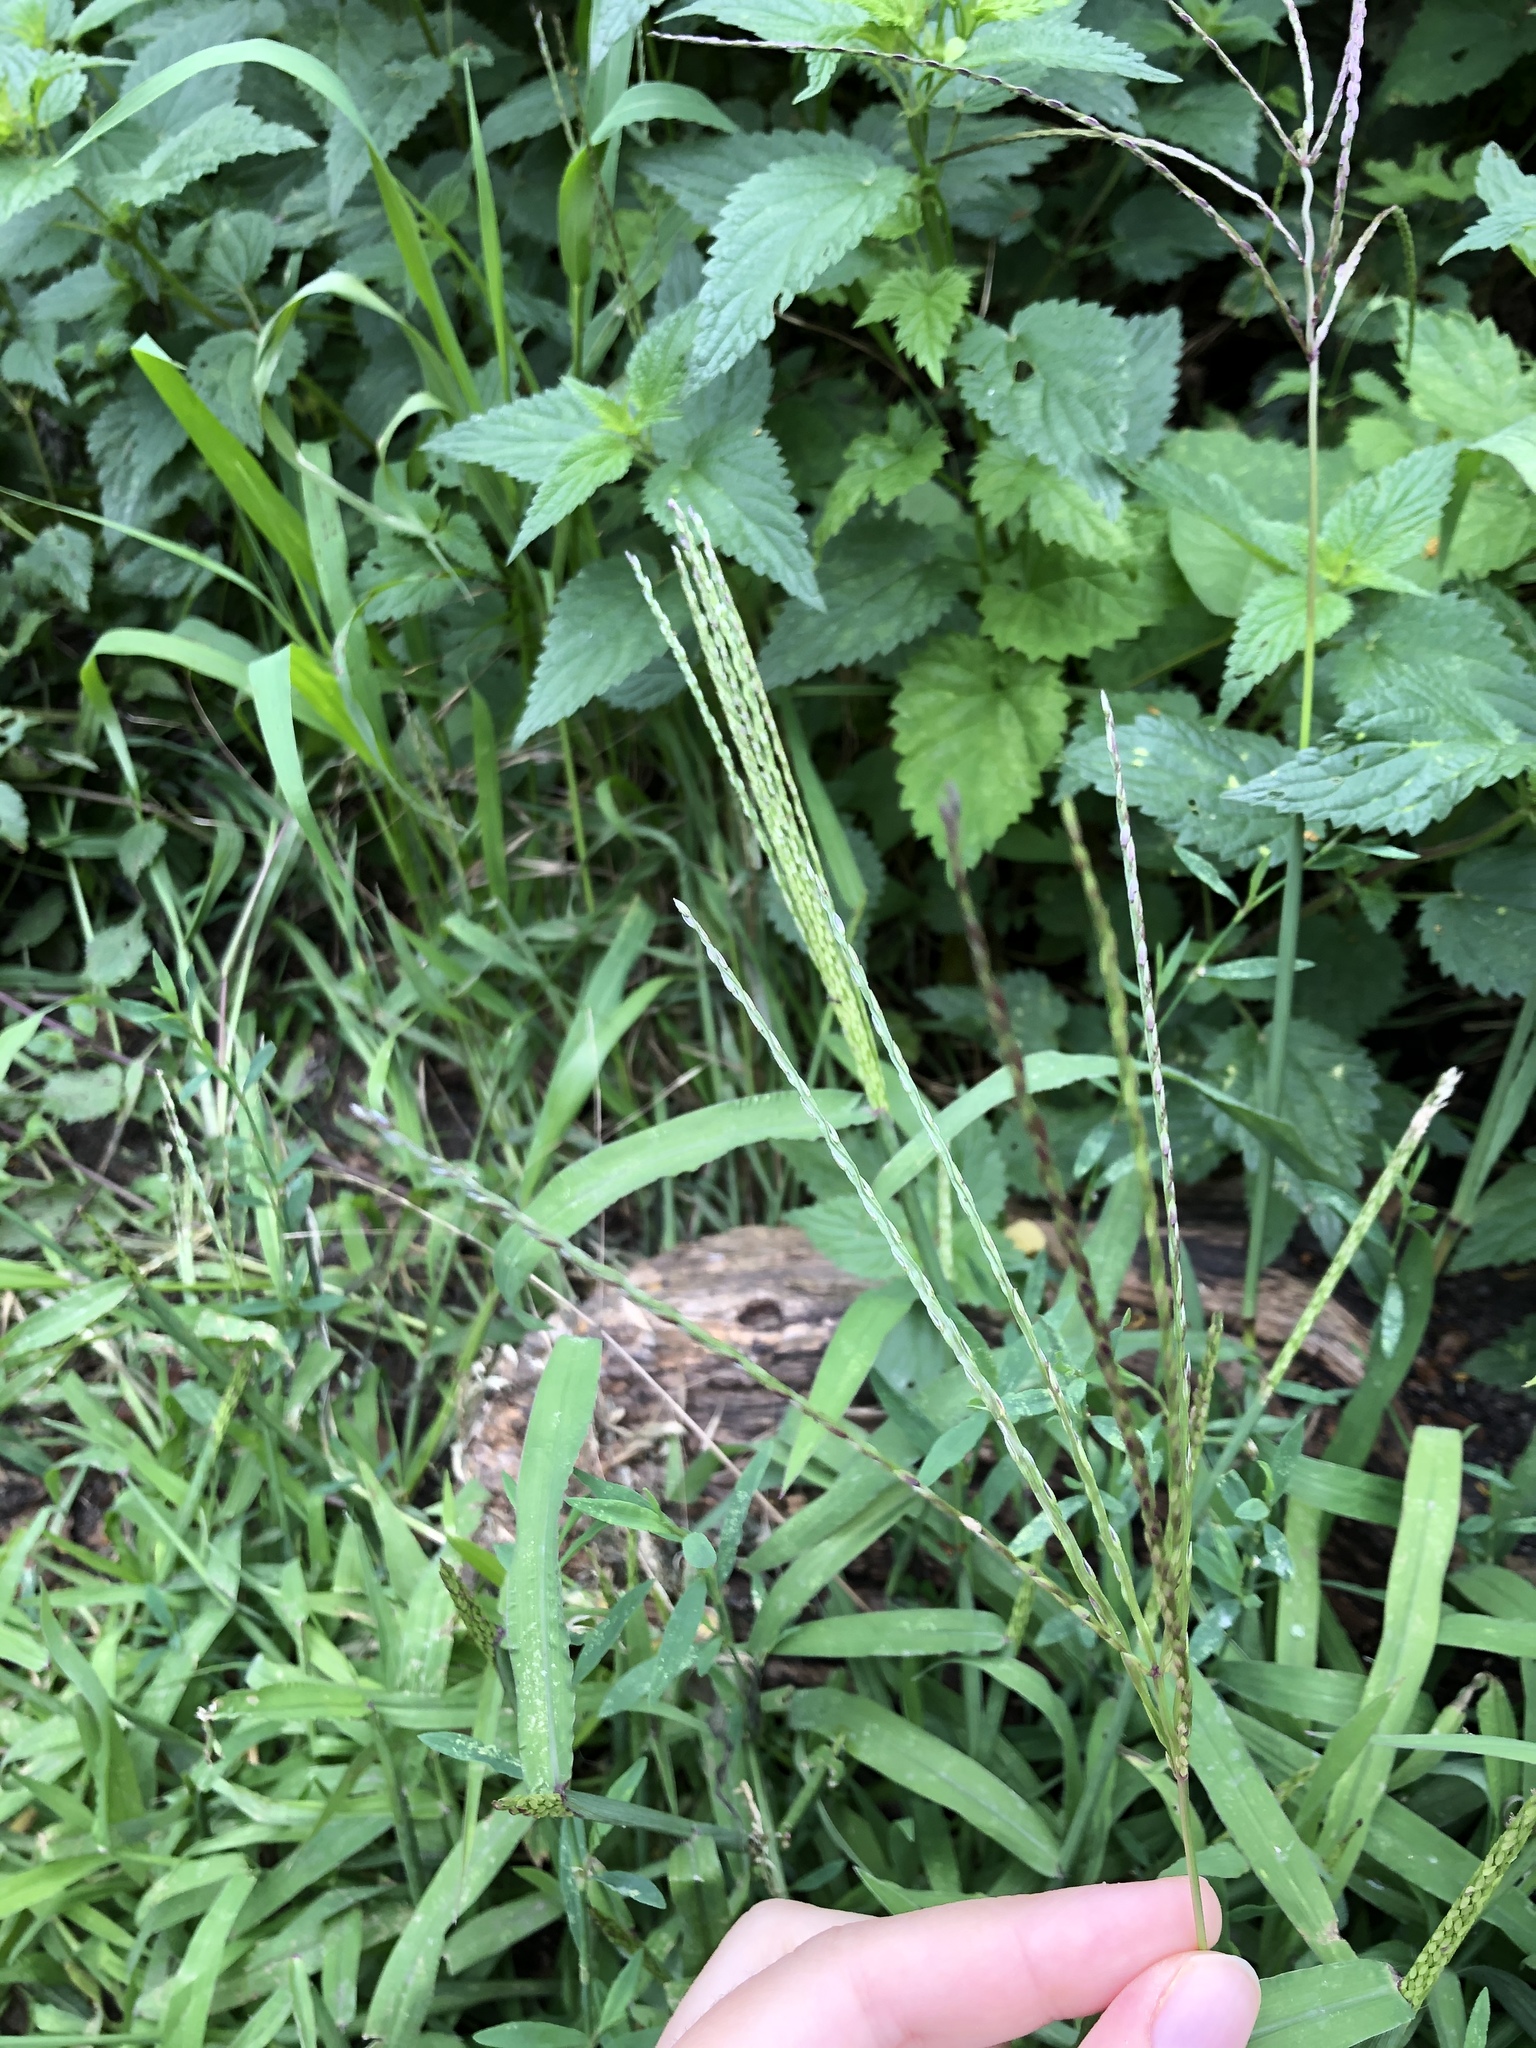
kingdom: Plantae
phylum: Tracheophyta
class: Liliopsida
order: Poales
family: Poaceae
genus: Digitaria
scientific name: Digitaria sanguinalis
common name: Hairy crabgrass
